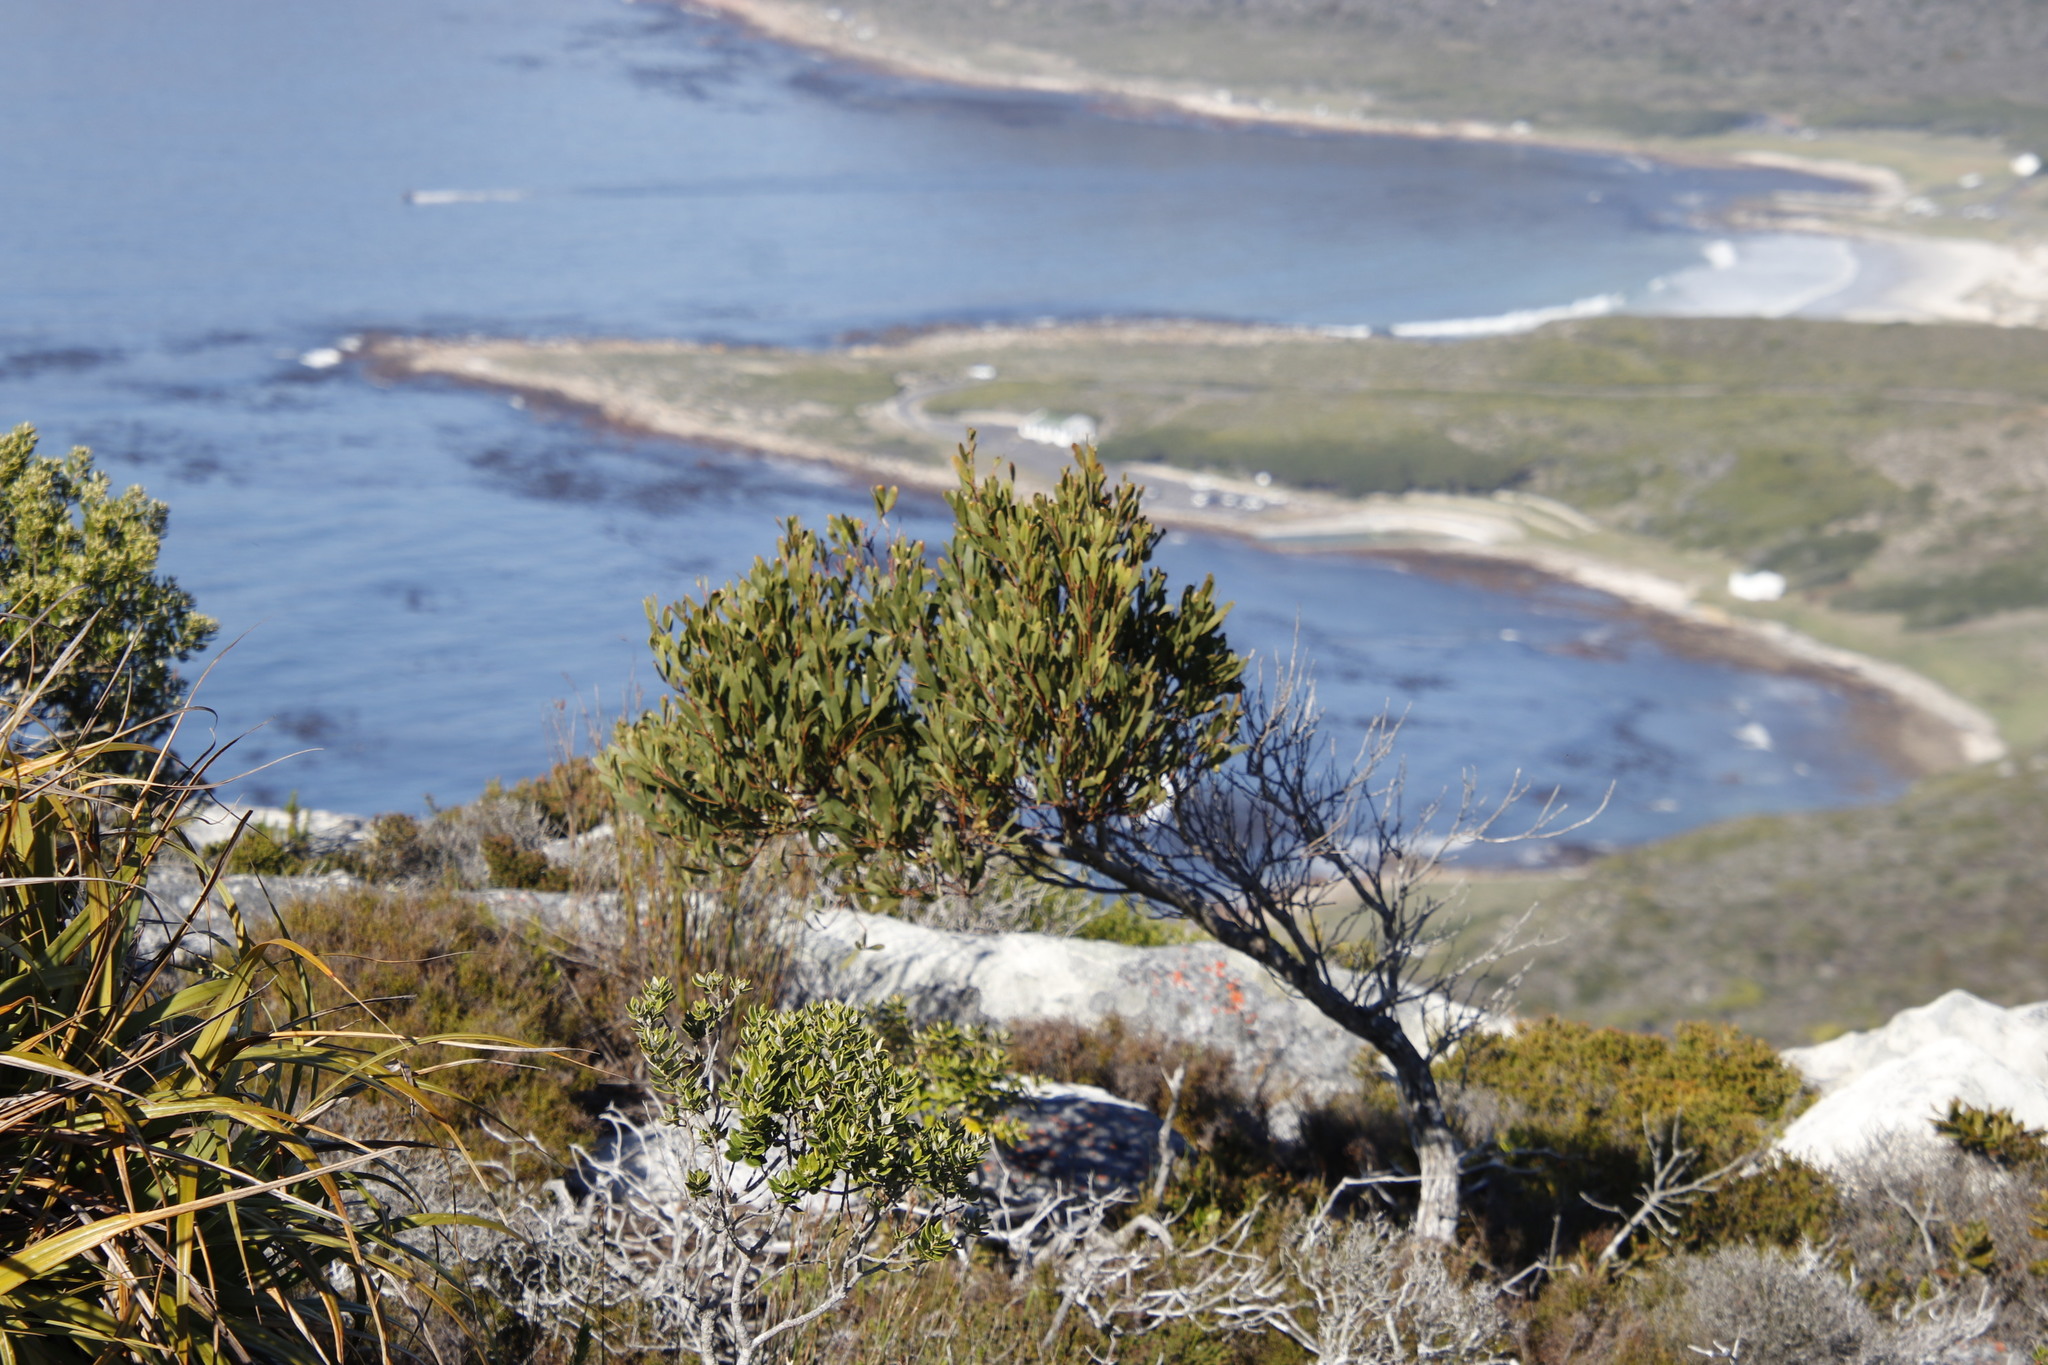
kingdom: Plantae
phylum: Tracheophyta
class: Magnoliopsida
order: Fabales
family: Fabaceae
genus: Acacia
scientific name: Acacia cyclops
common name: Coastal wattle
